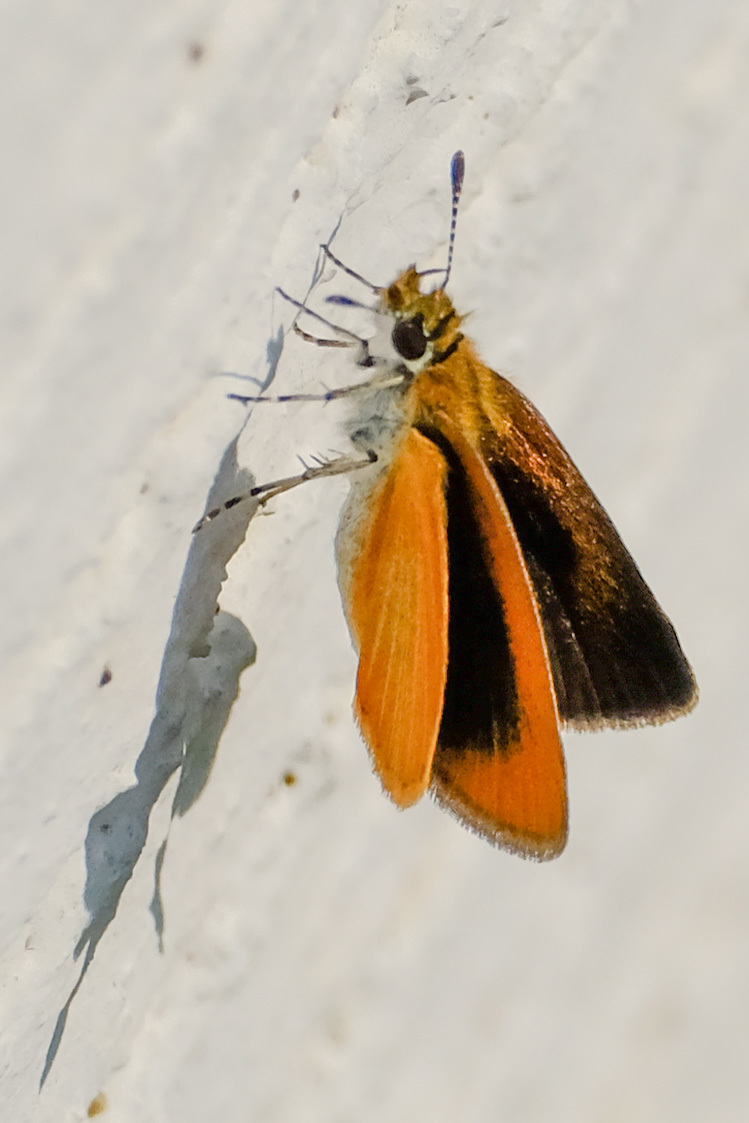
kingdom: Animalia
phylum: Arthropoda
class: Insecta
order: Lepidoptera
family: Hesperiidae
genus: Ancyloxypha
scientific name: Ancyloxypha numitor
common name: Least skipper
